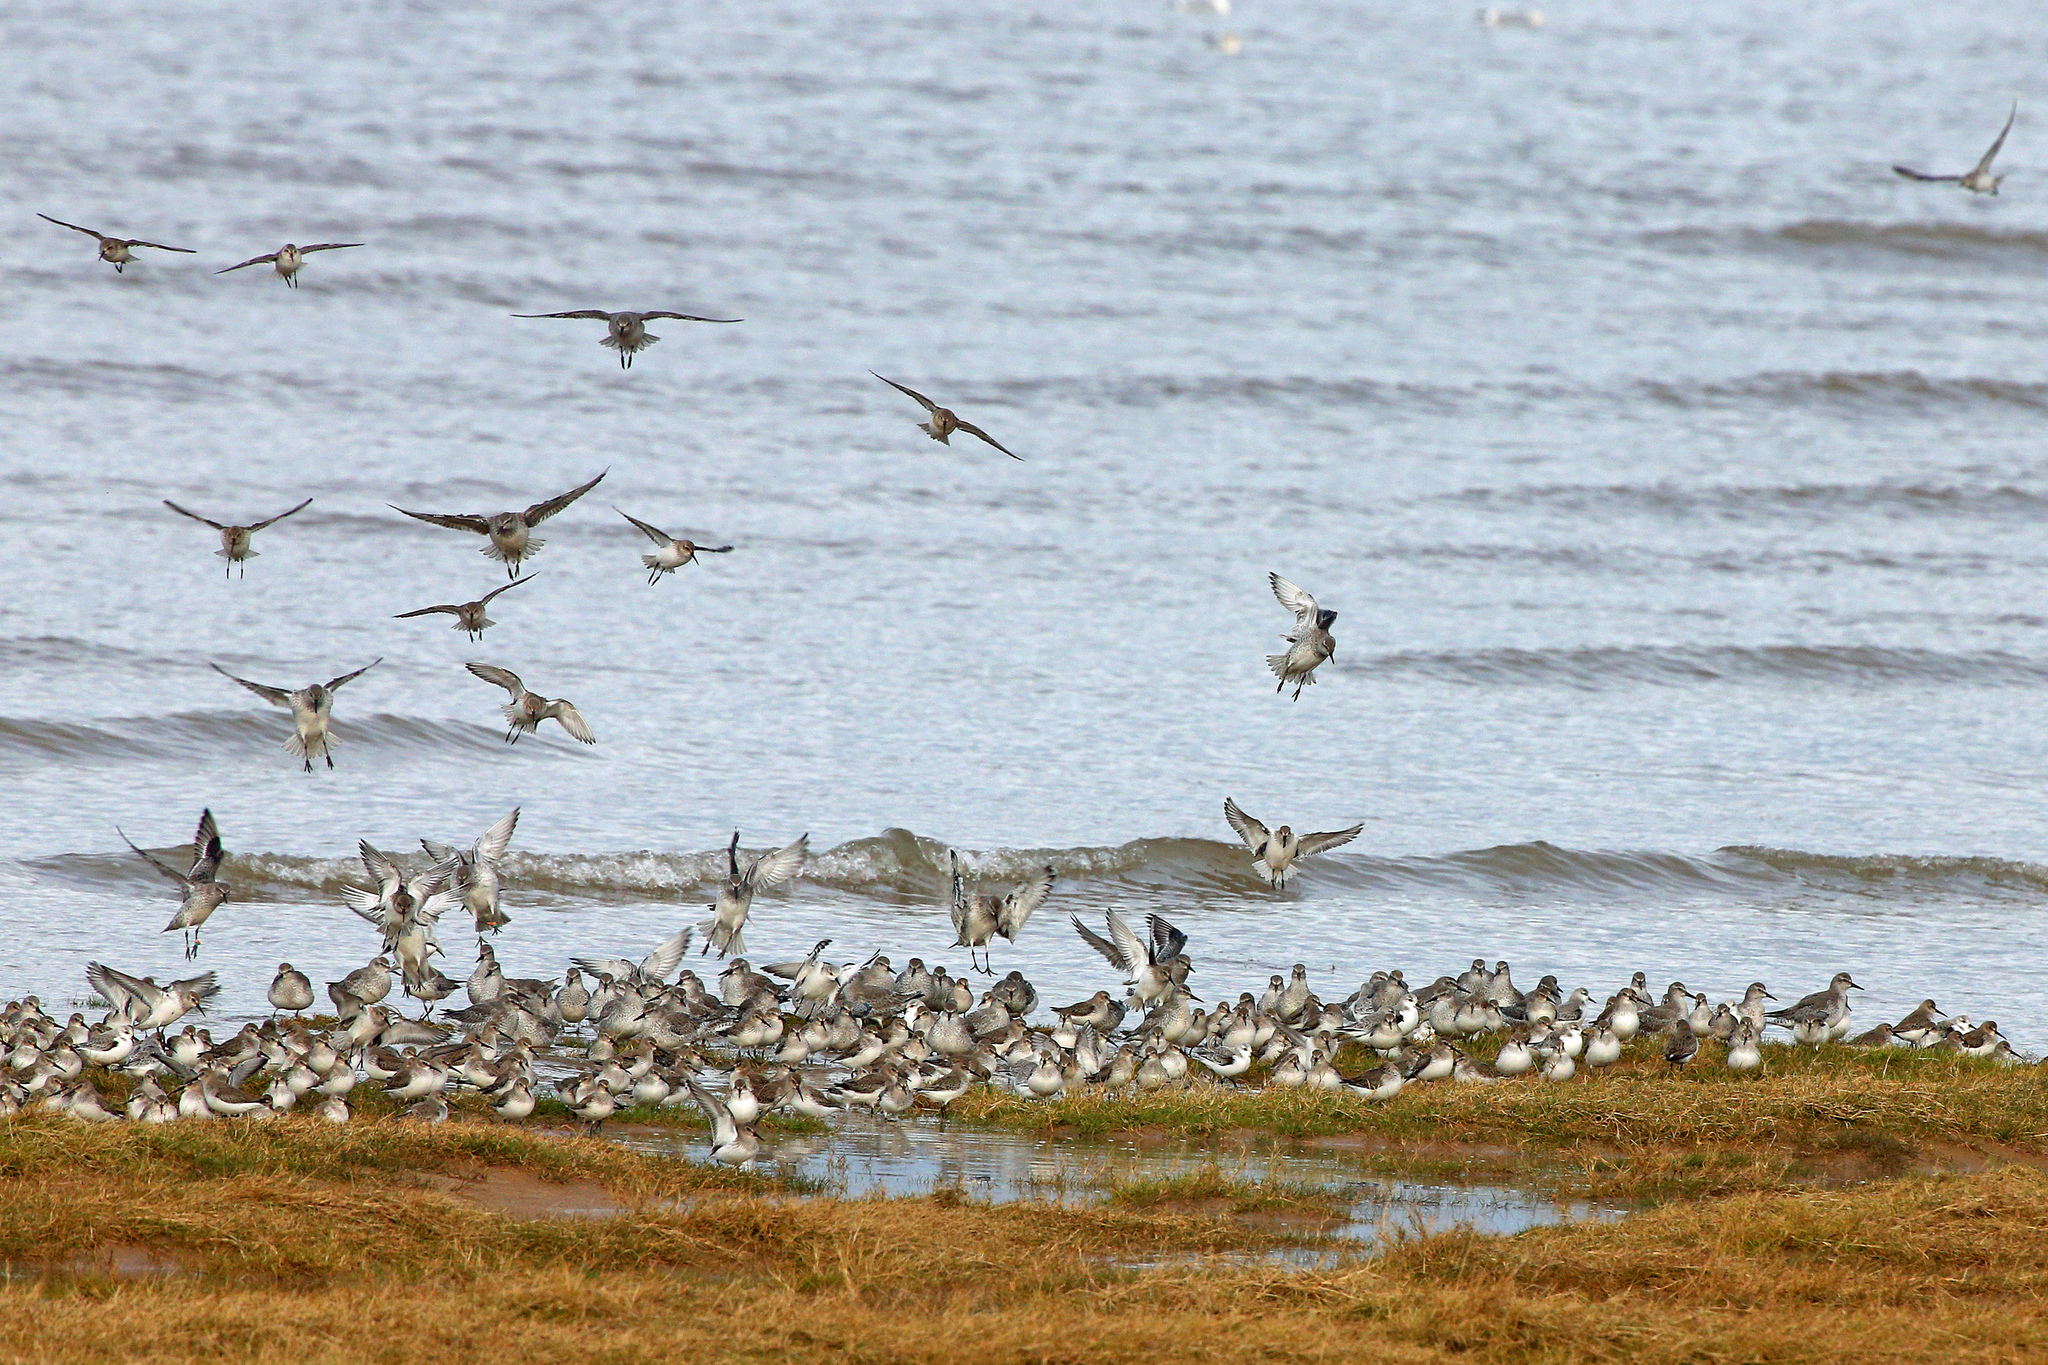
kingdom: Animalia
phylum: Chordata
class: Aves
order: Charadriiformes
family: Scolopacidae
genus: Calidris
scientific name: Calidris alpina
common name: Dunlin
